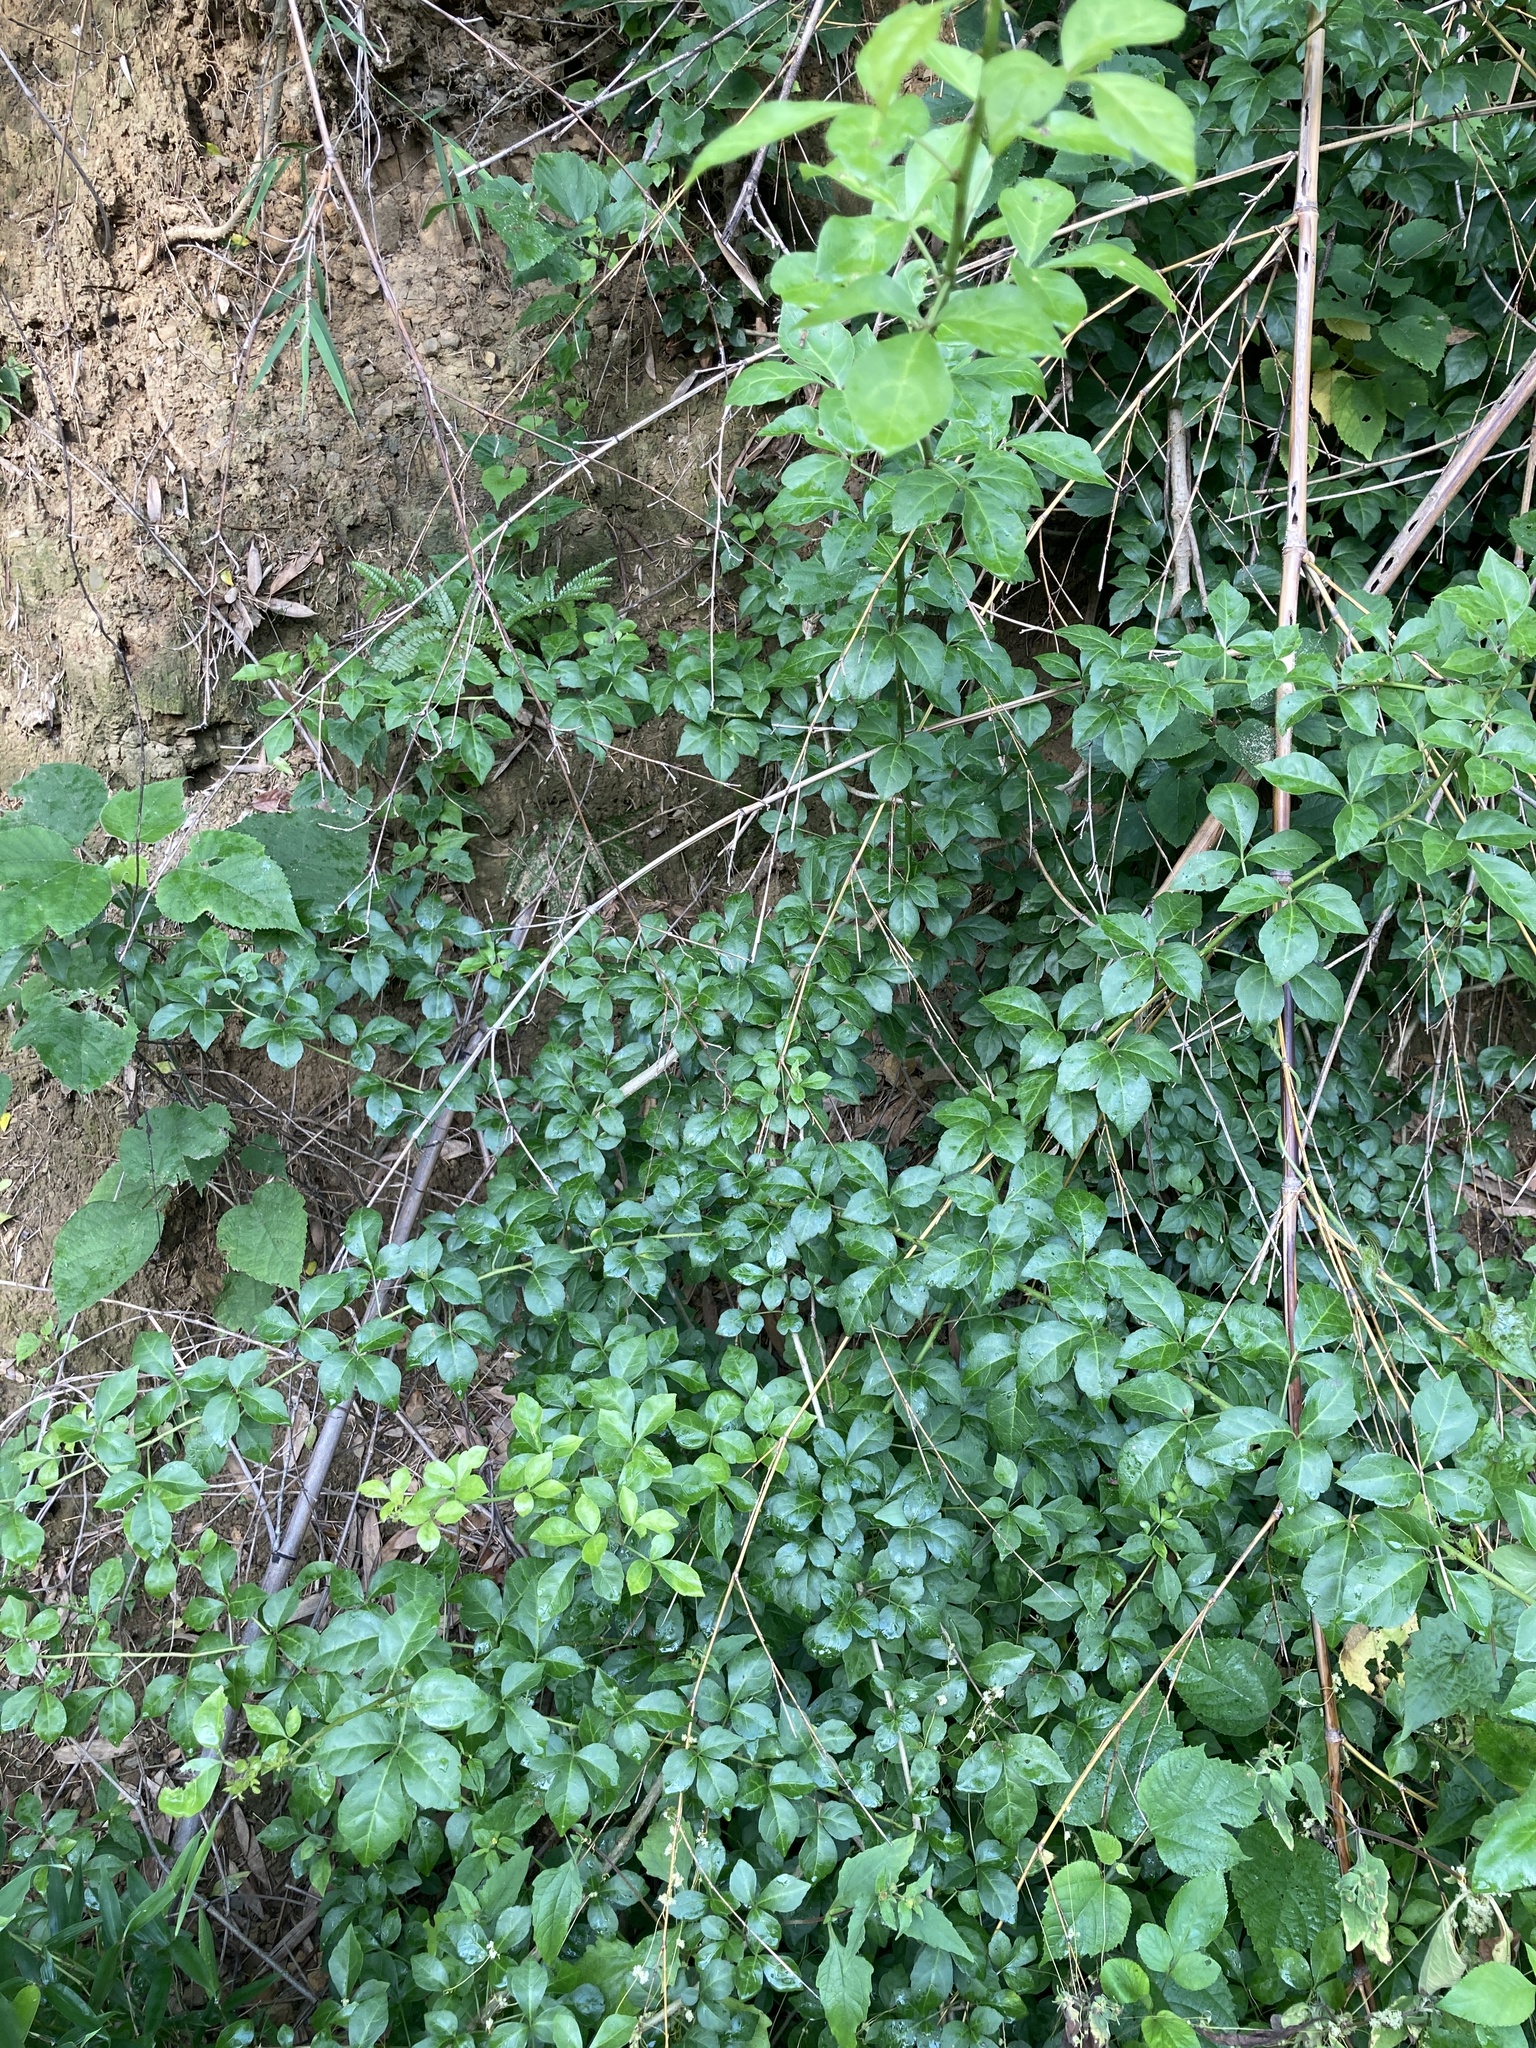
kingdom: Plantae
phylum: Tracheophyta
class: Magnoliopsida
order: Apiales
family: Araliaceae
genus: Eleutherococcus
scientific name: Eleutherococcus trifoliatus
